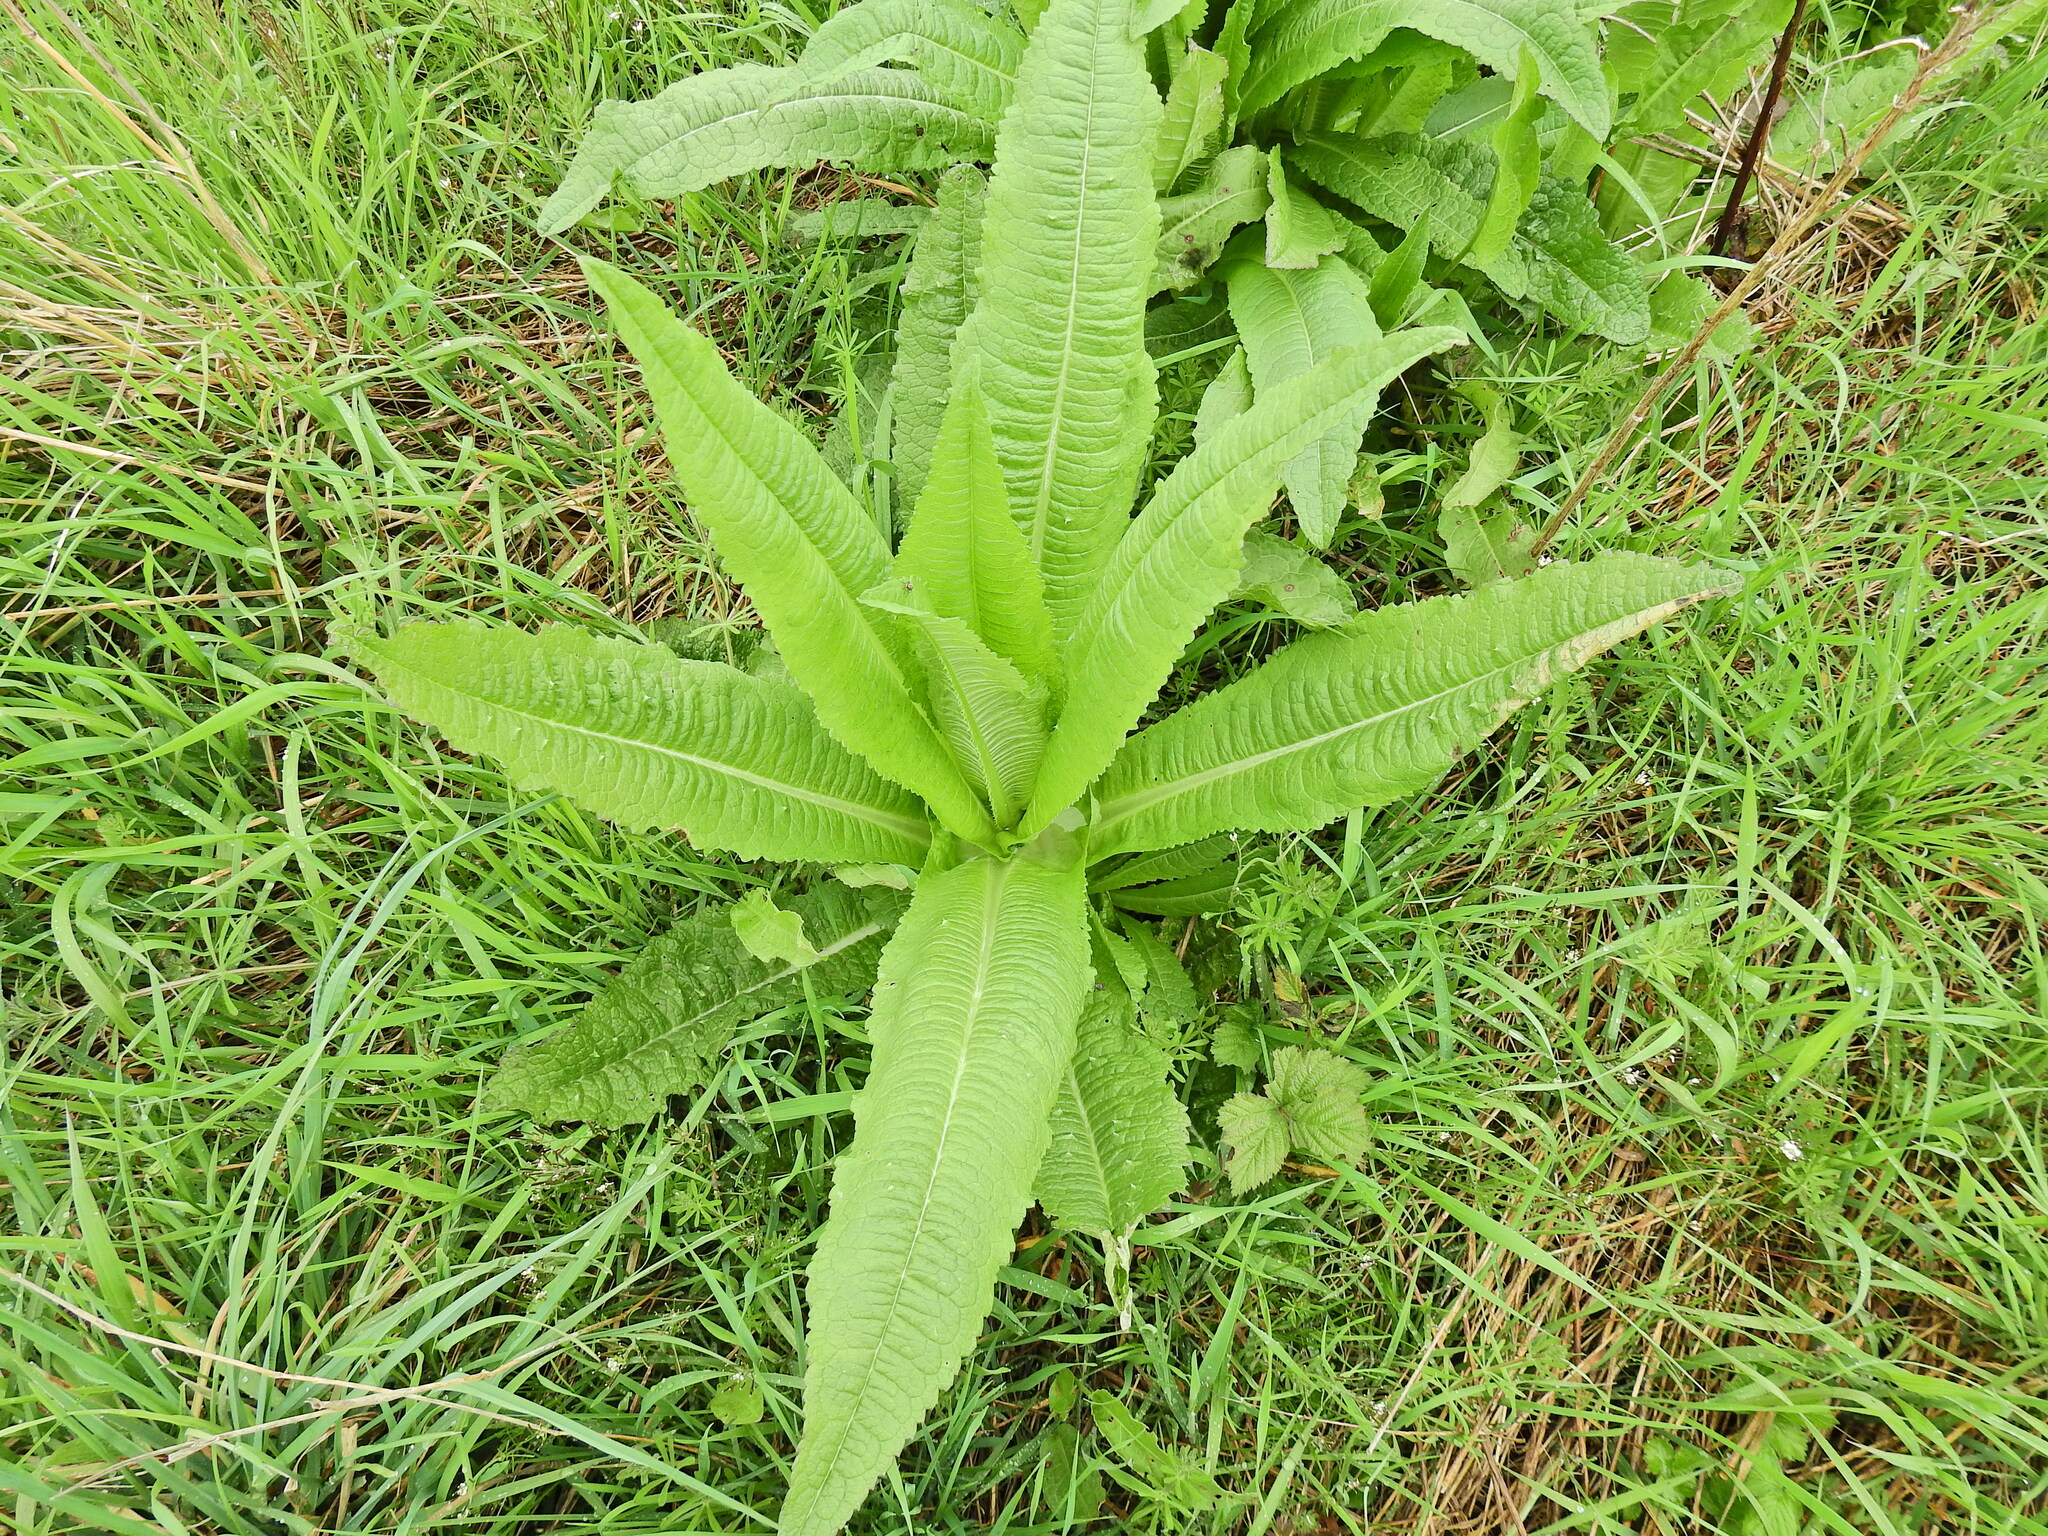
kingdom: Plantae
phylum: Tracheophyta
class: Magnoliopsida
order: Dipsacales
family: Caprifoliaceae
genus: Dipsacus
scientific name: Dipsacus fullonum
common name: Teasel
